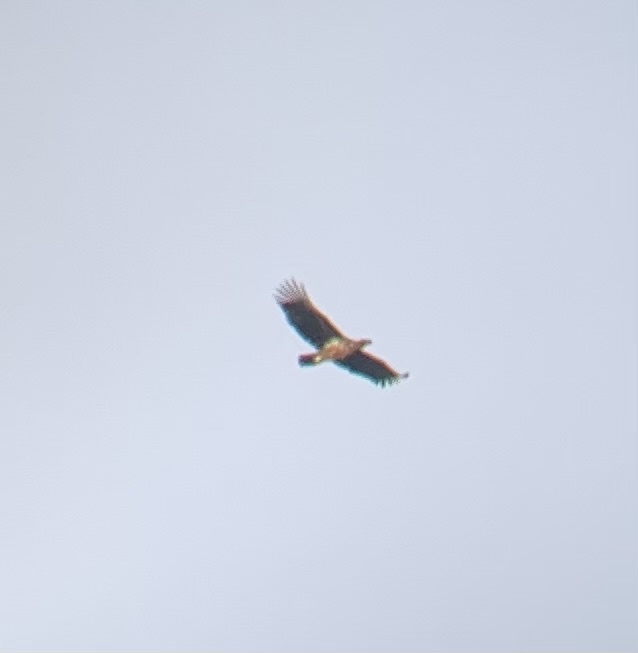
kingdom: Animalia
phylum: Chordata
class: Aves
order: Accipitriformes
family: Accipitridae
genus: Haliaeetus
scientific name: Haliaeetus albicilla
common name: White-tailed eagle
